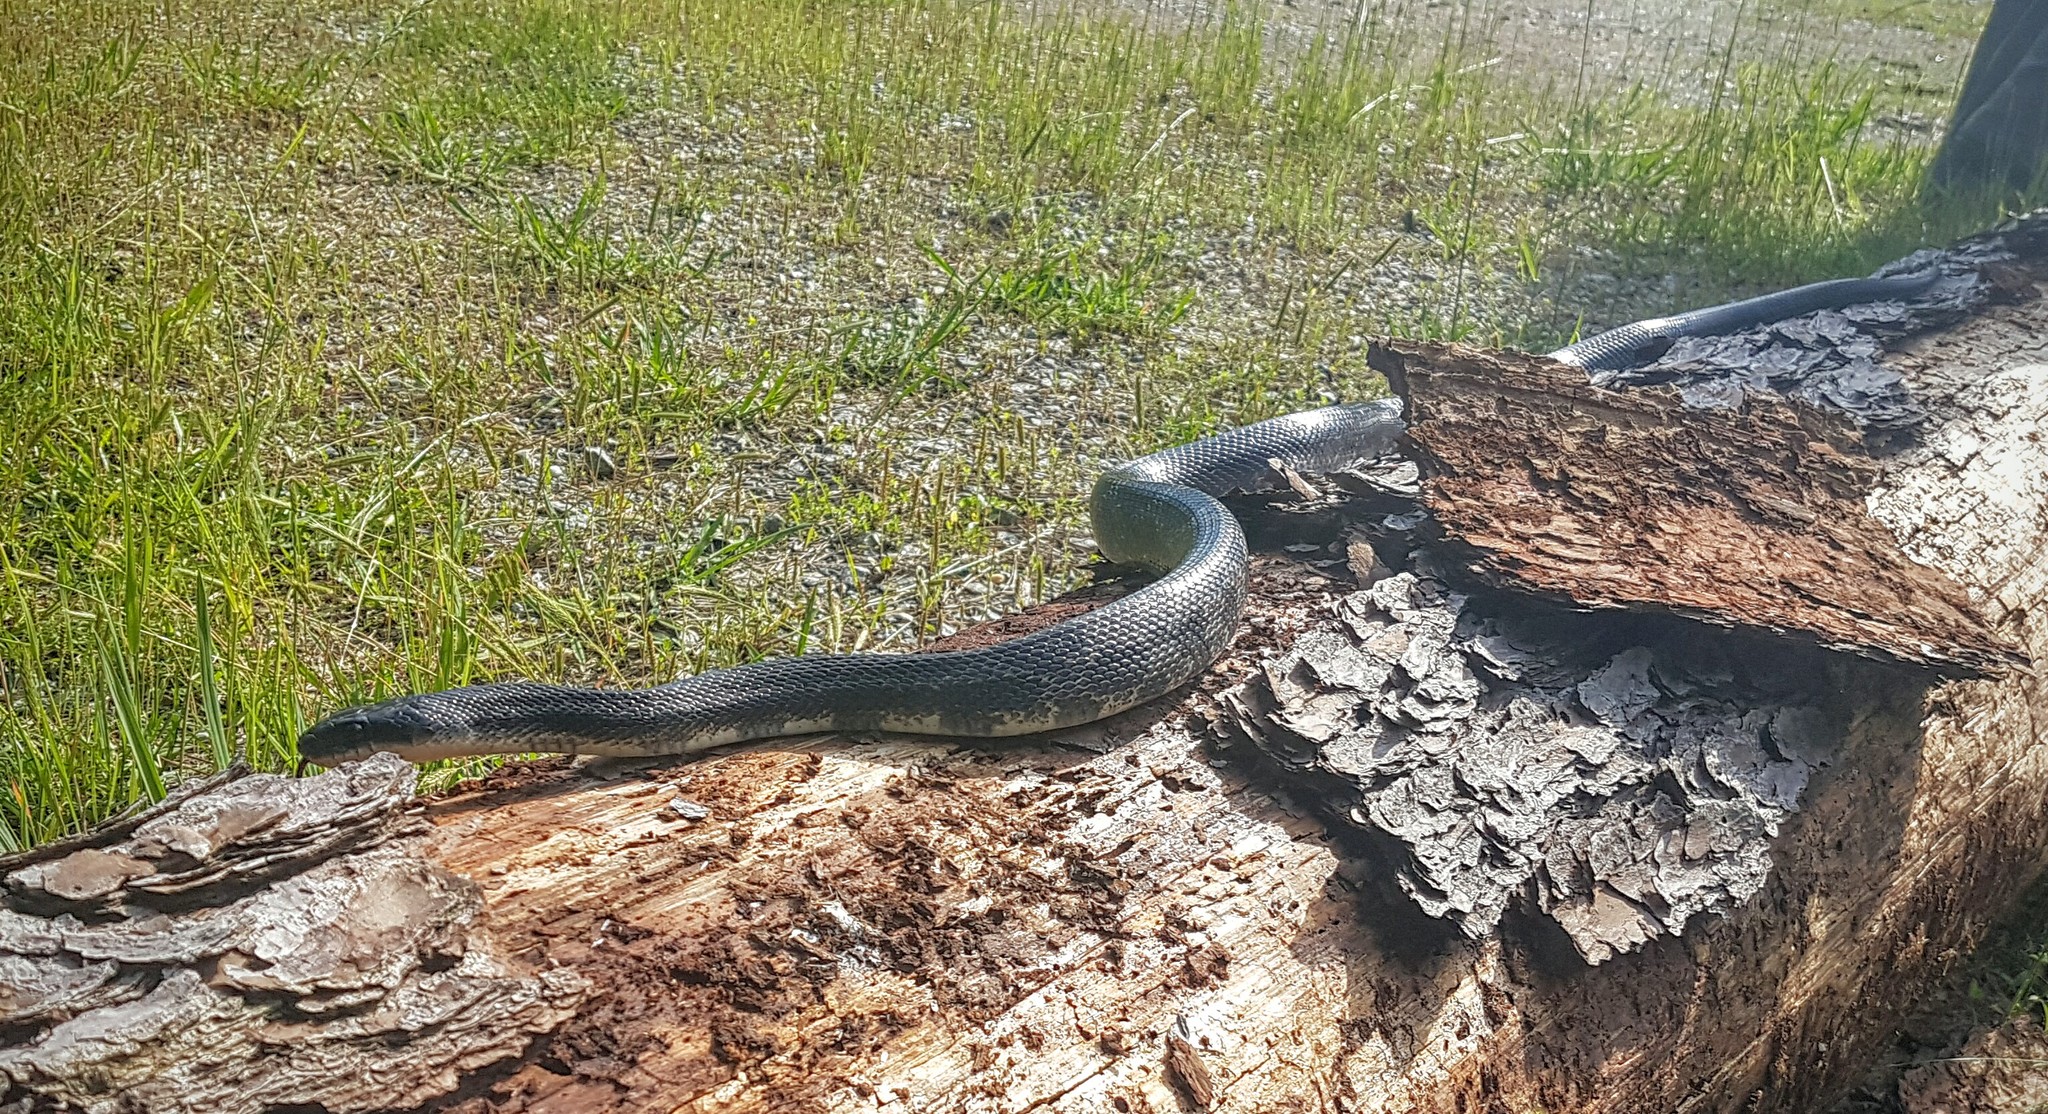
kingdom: Animalia
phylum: Chordata
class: Squamata
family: Colubridae
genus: Pantherophis
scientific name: Pantherophis obsoletus
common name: Black rat snake
